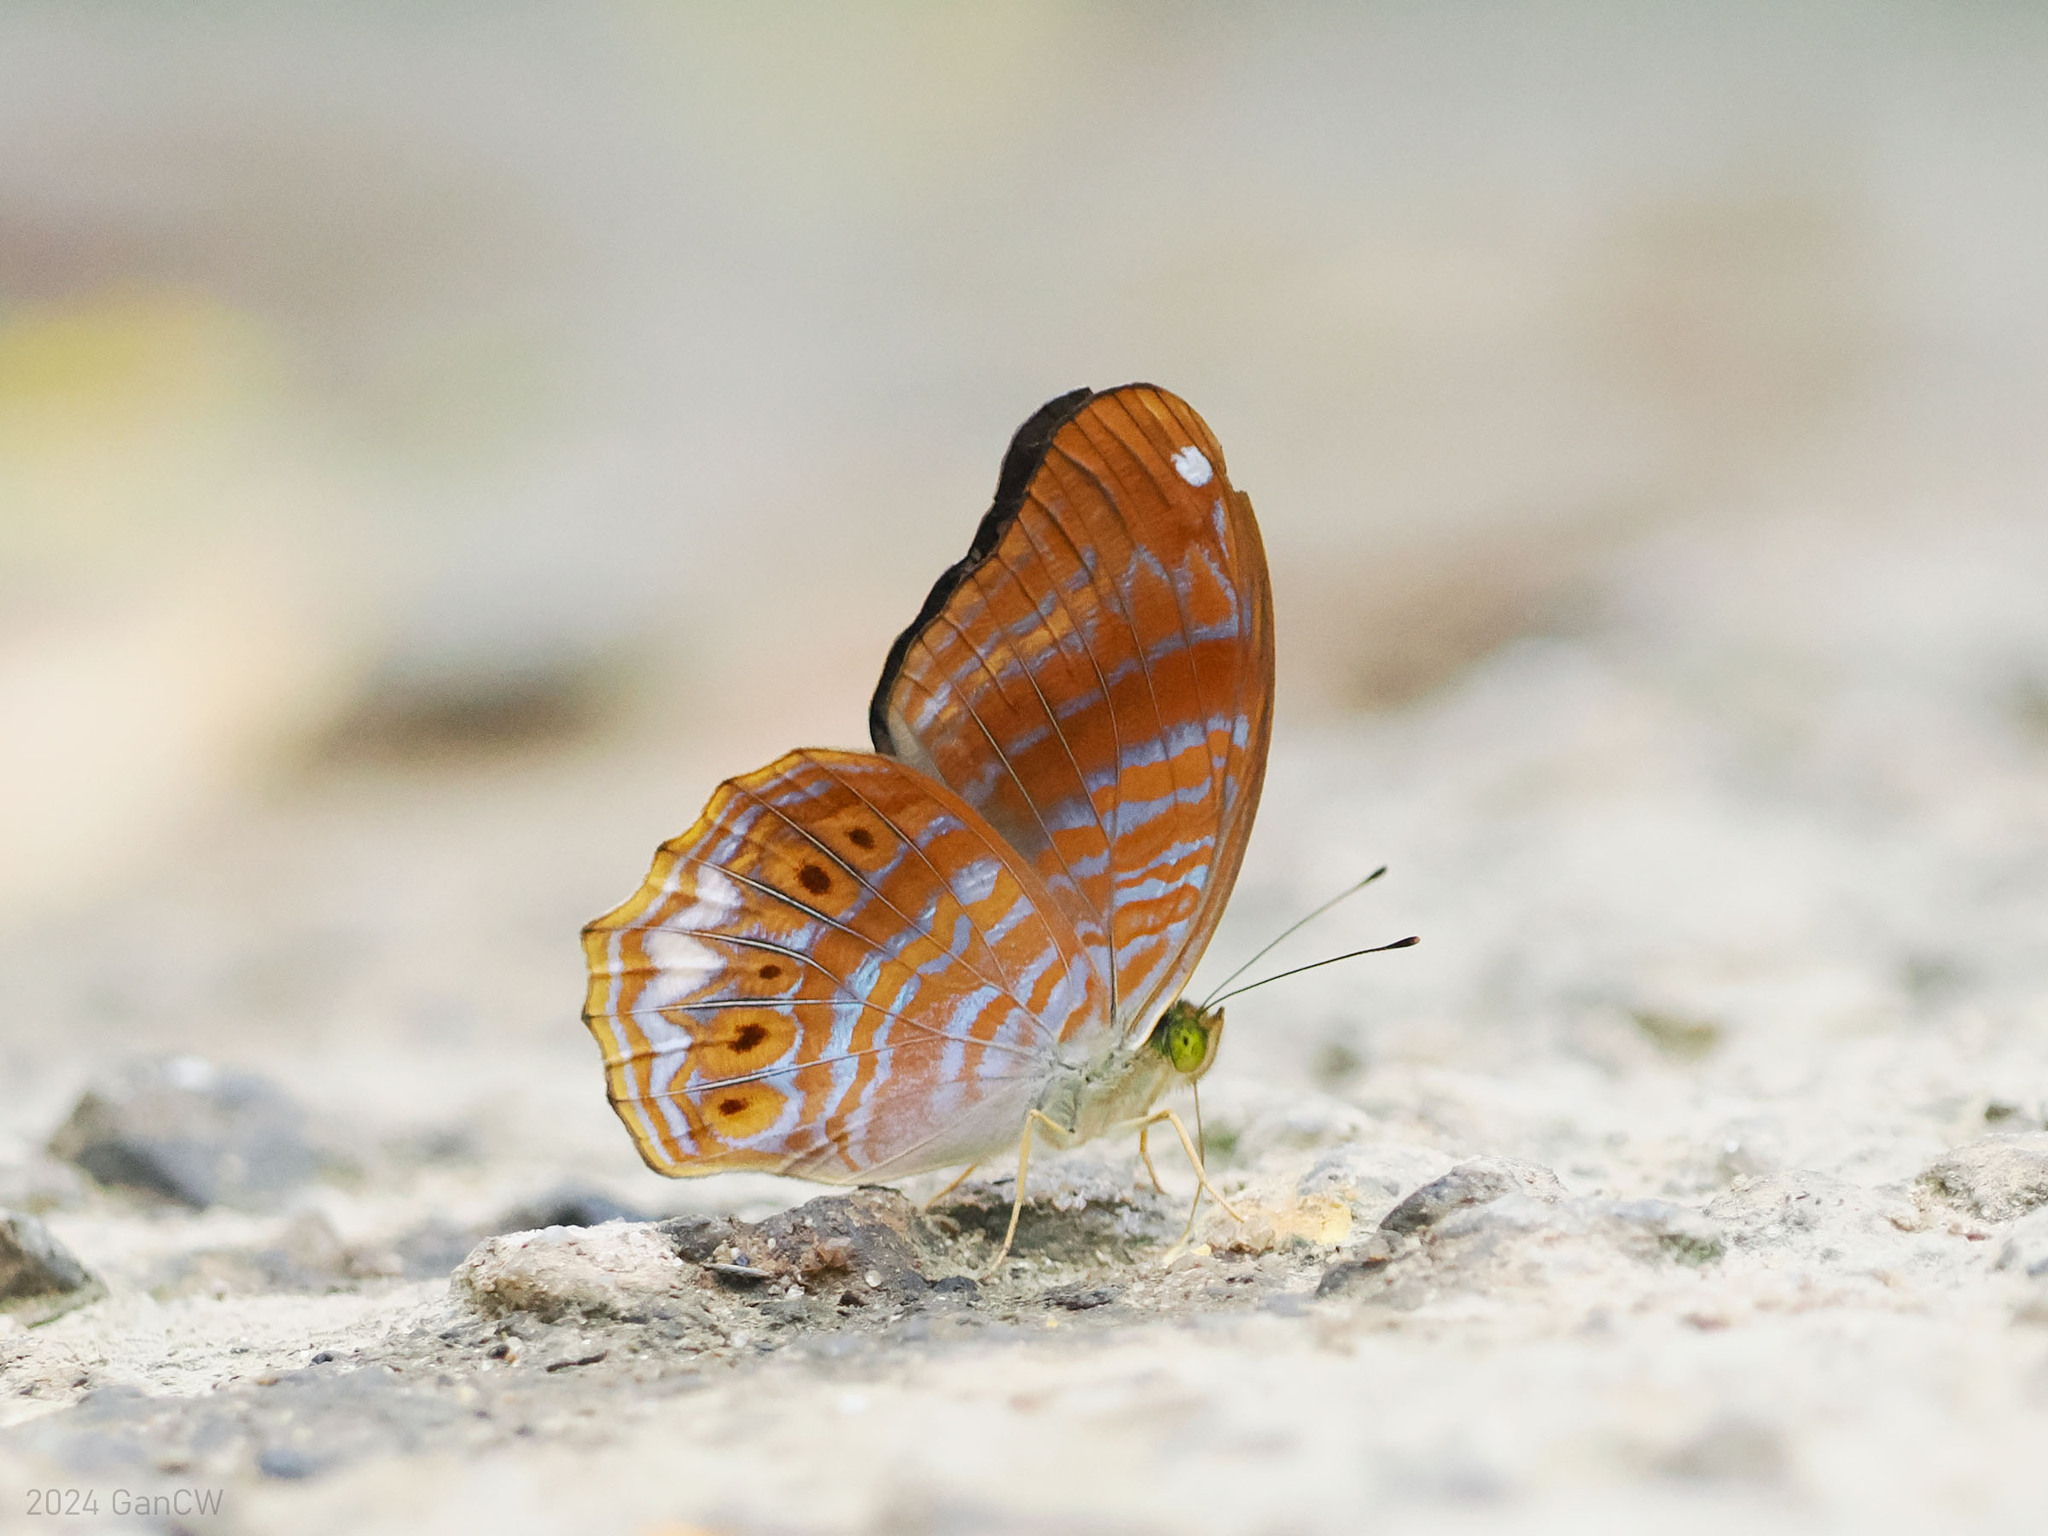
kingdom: Animalia
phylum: Arthropoda
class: Insecta
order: Lepidoptera
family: Nymphalidae
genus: Terinos
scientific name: Terinos terpander
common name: Royal assyrian
